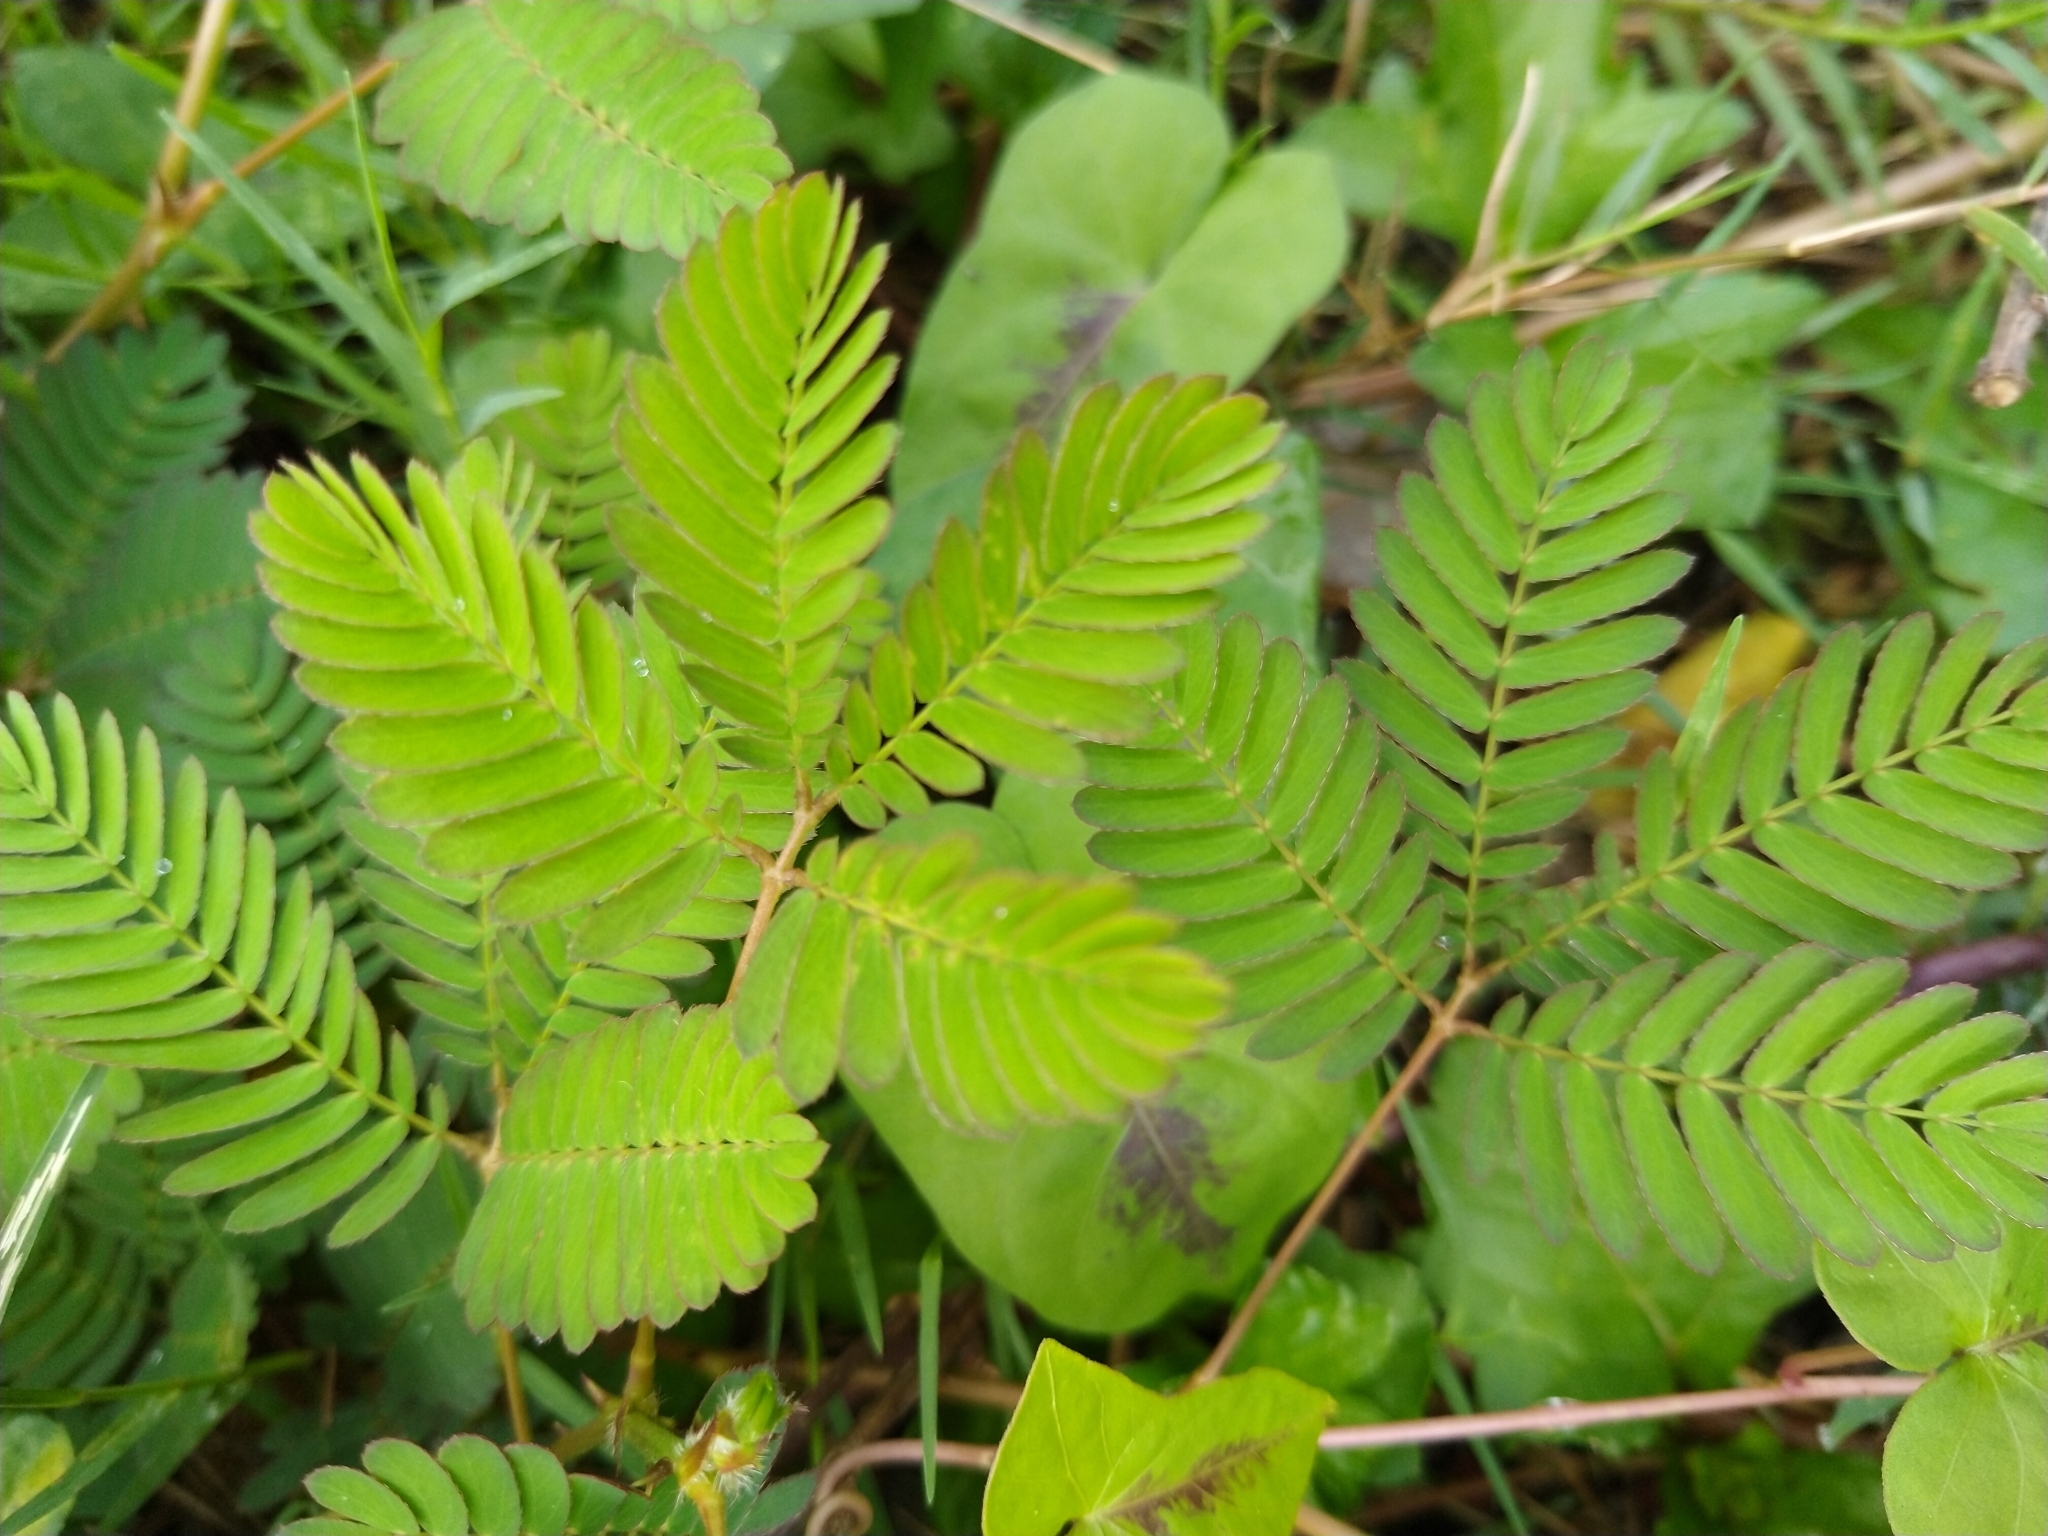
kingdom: Plantae
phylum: Tracheophyta
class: Magnoliopsida
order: Fabales
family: Fabaceae
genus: Mimosa
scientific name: Mimosa pudica
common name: Sensitive plant
